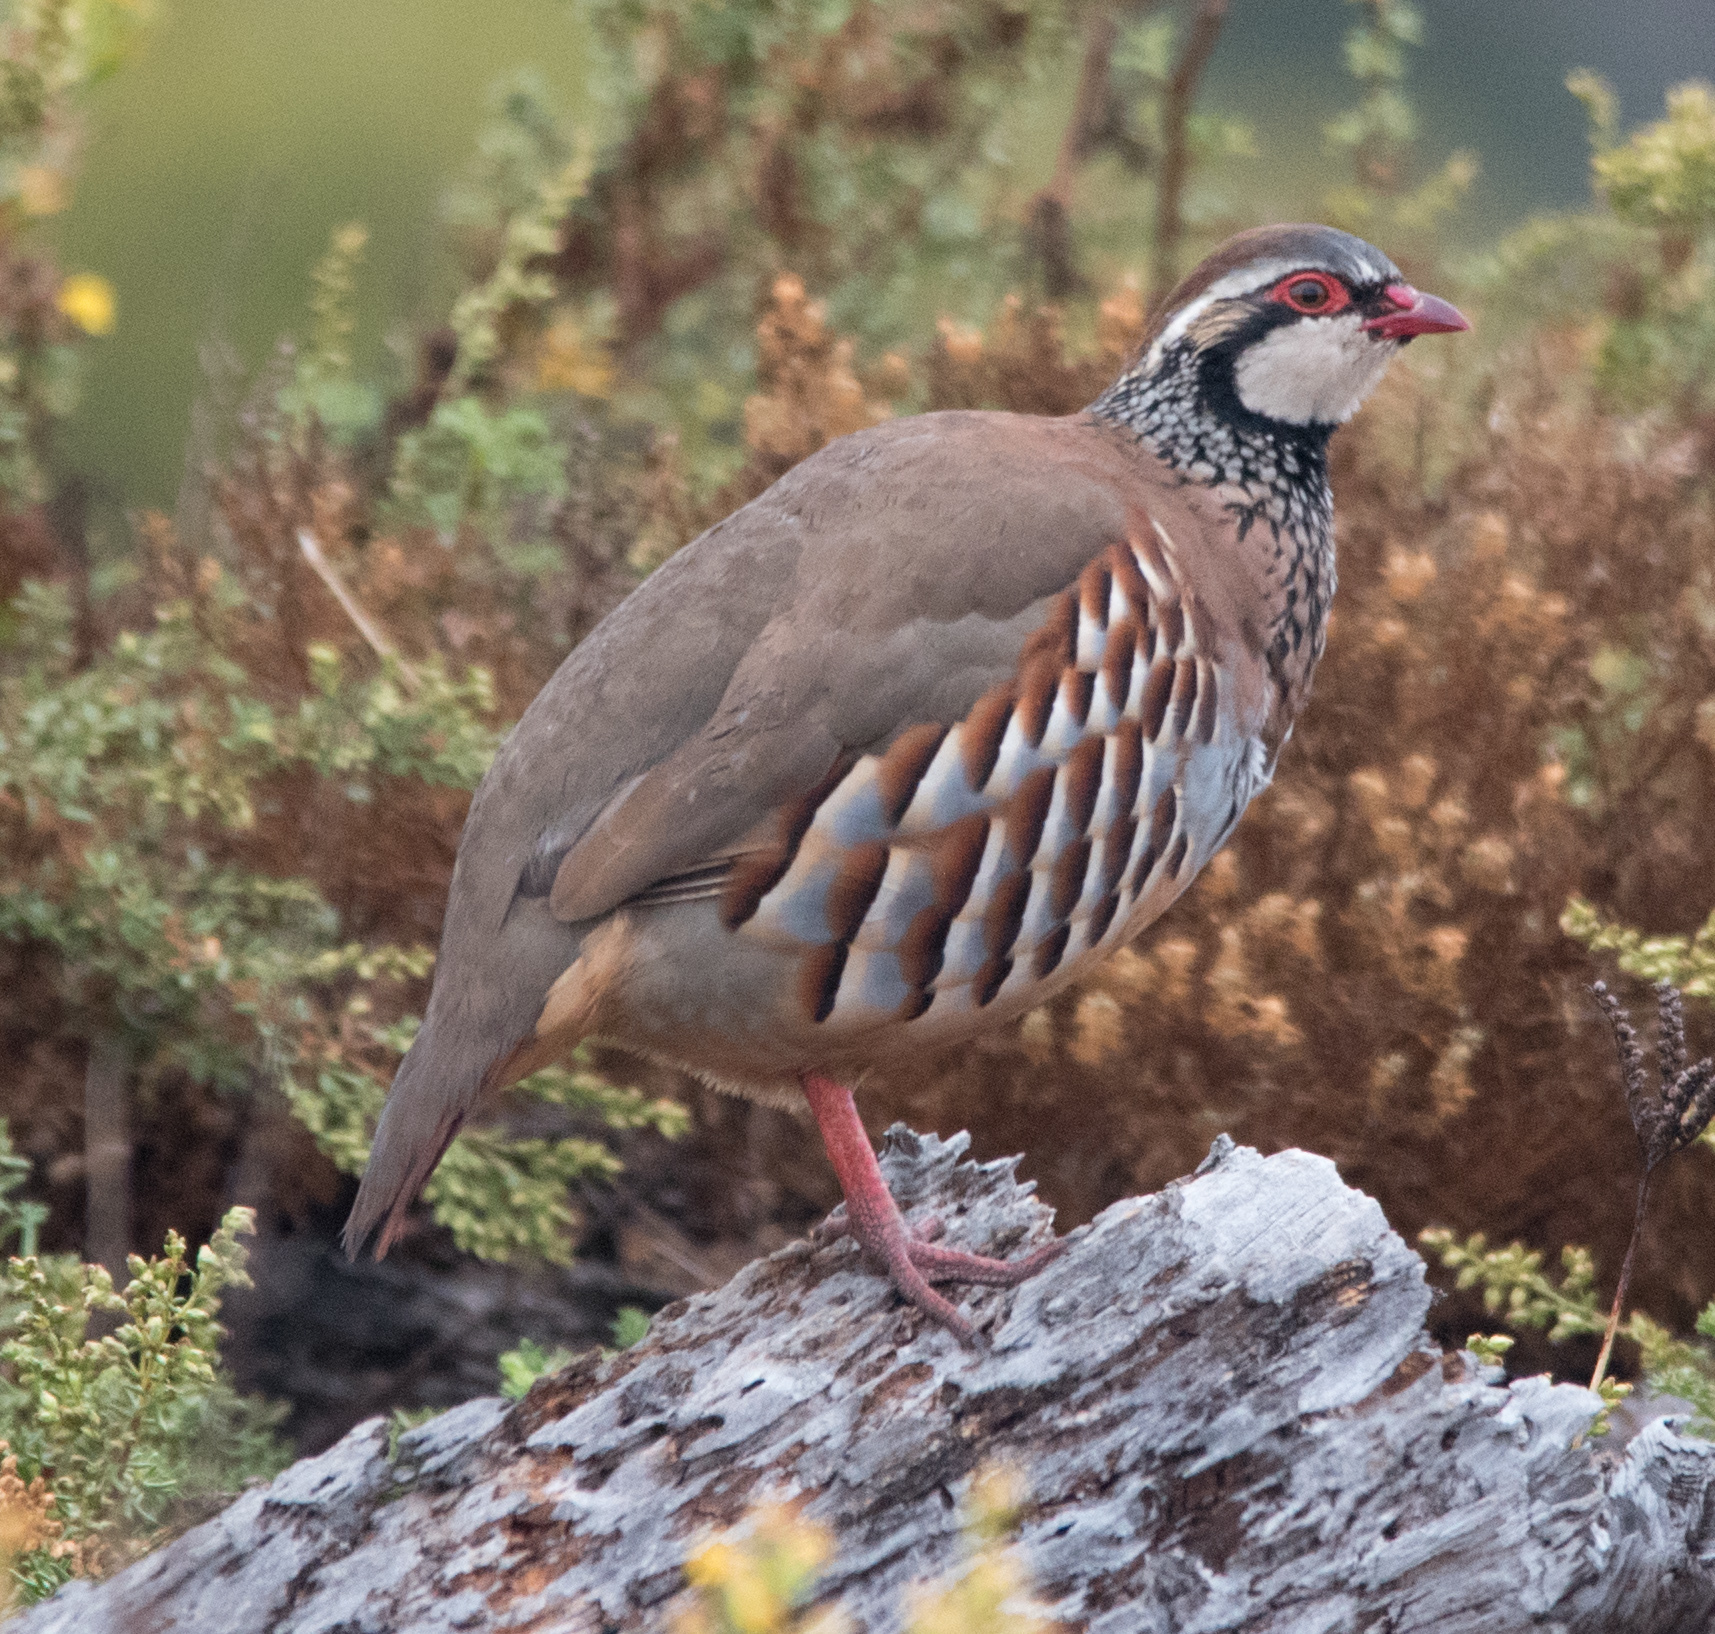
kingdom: Animalia
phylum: Chordata
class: Aves
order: Galliformes
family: Phasianidae
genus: Alectoris
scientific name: Alectoris rufa
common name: Red-legged partridge
